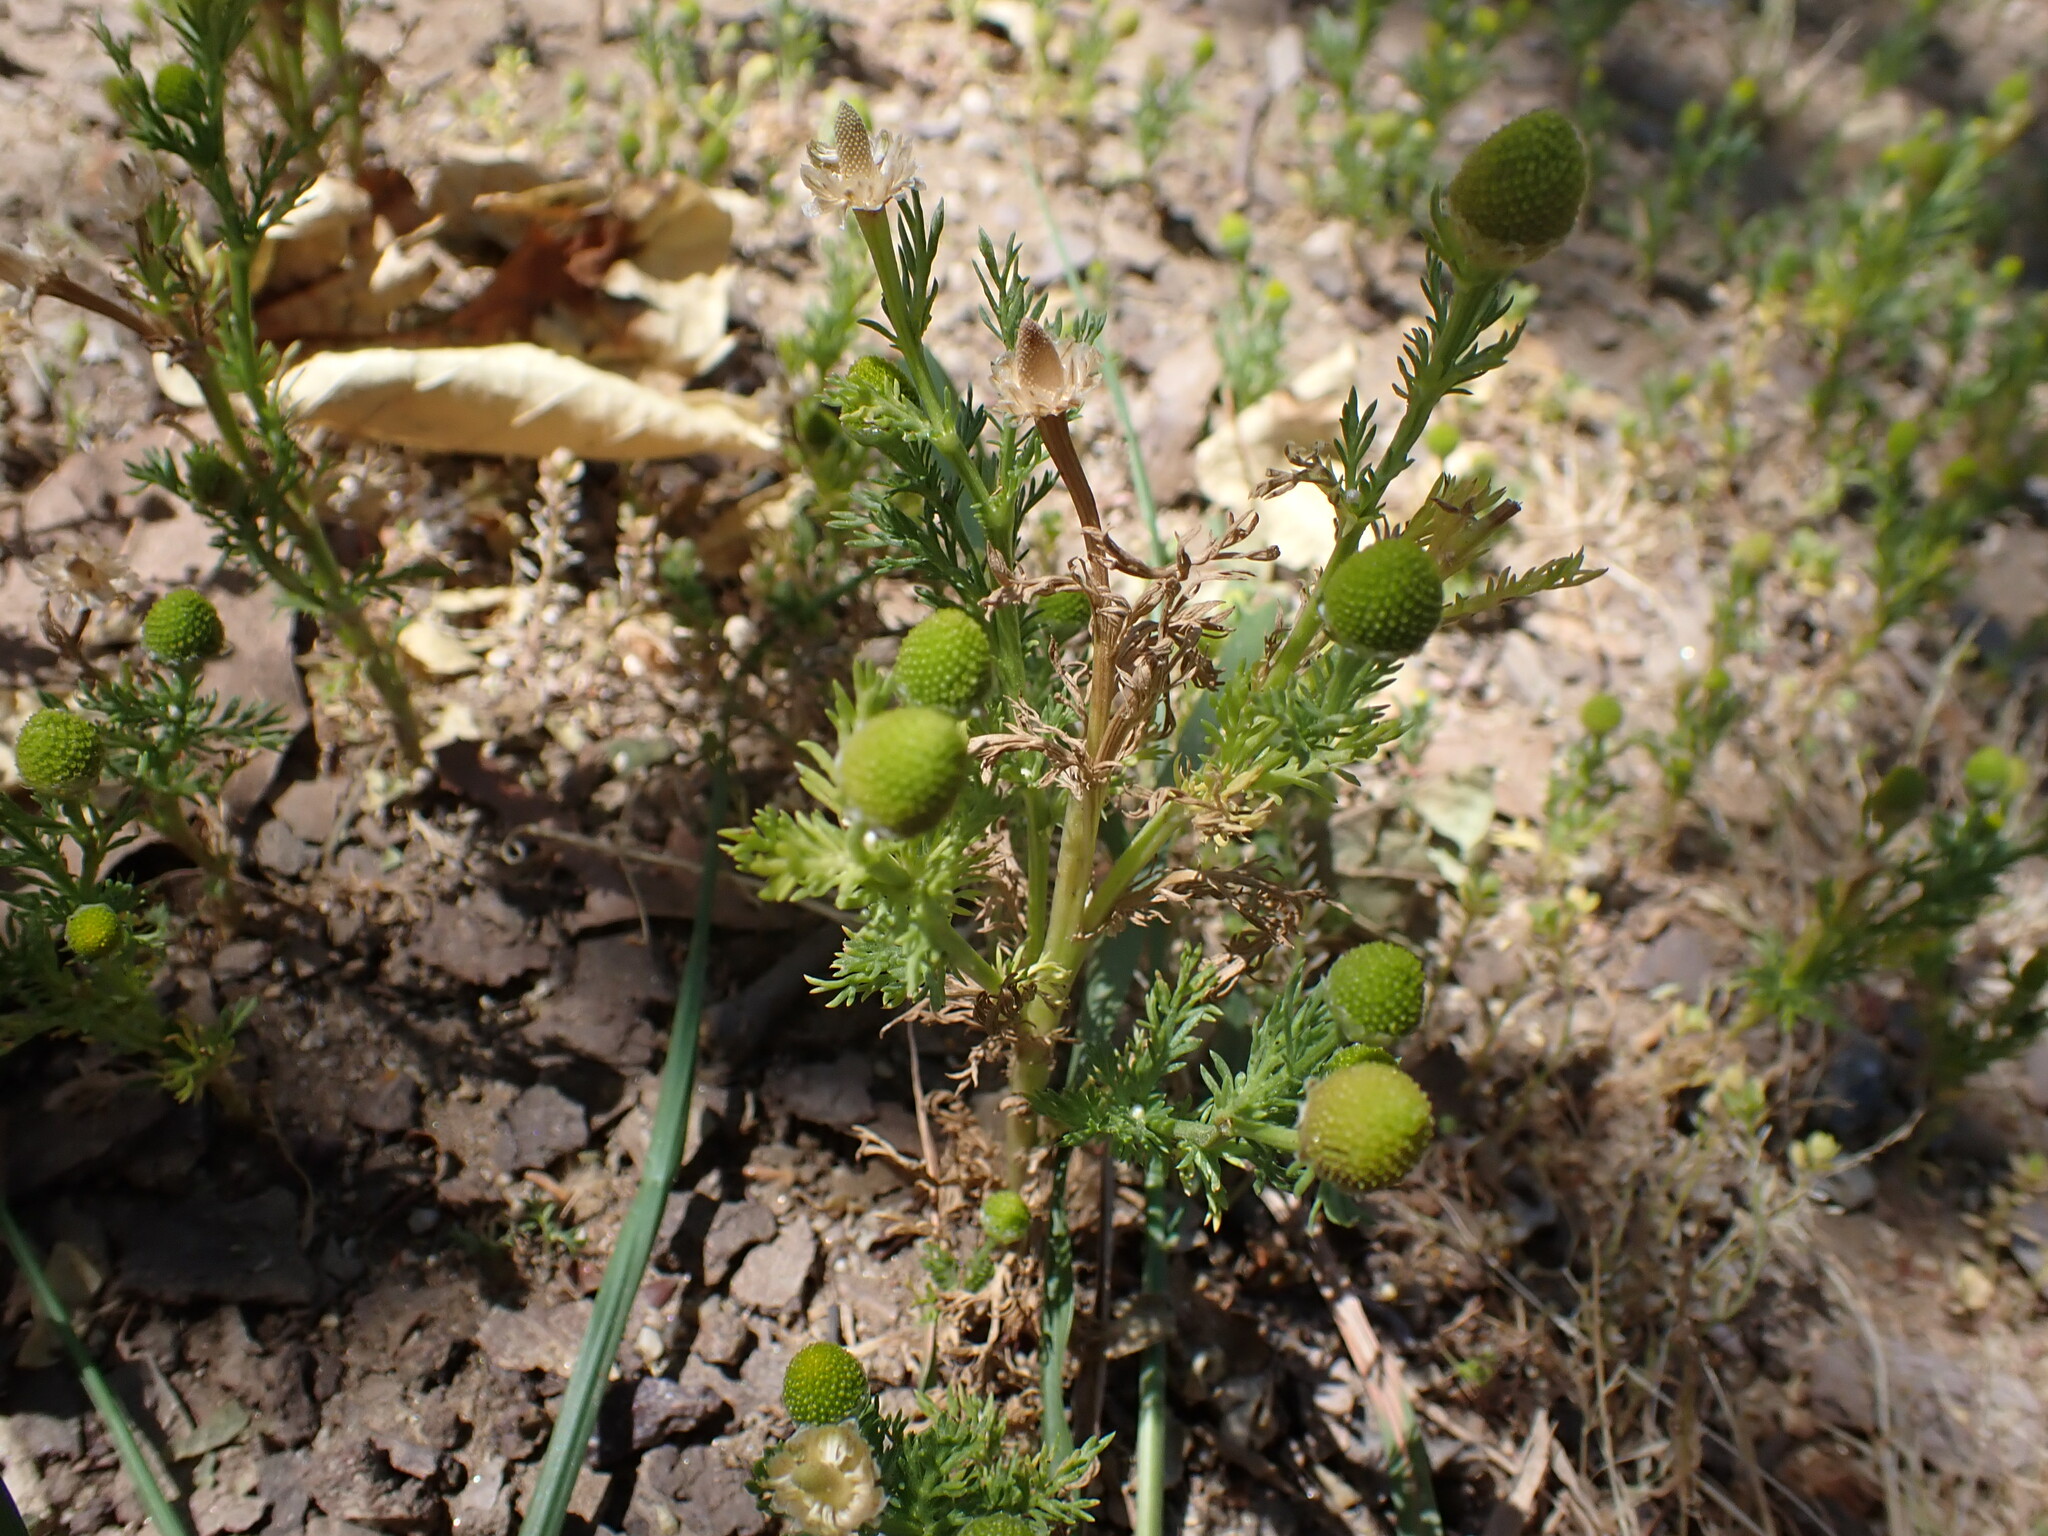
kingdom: Plantae
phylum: Tracheophyta
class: Magnoliopsida
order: Asterales
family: Asteraceae
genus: Matricaria
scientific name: Matricaria discoidea
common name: Disc mayweed
